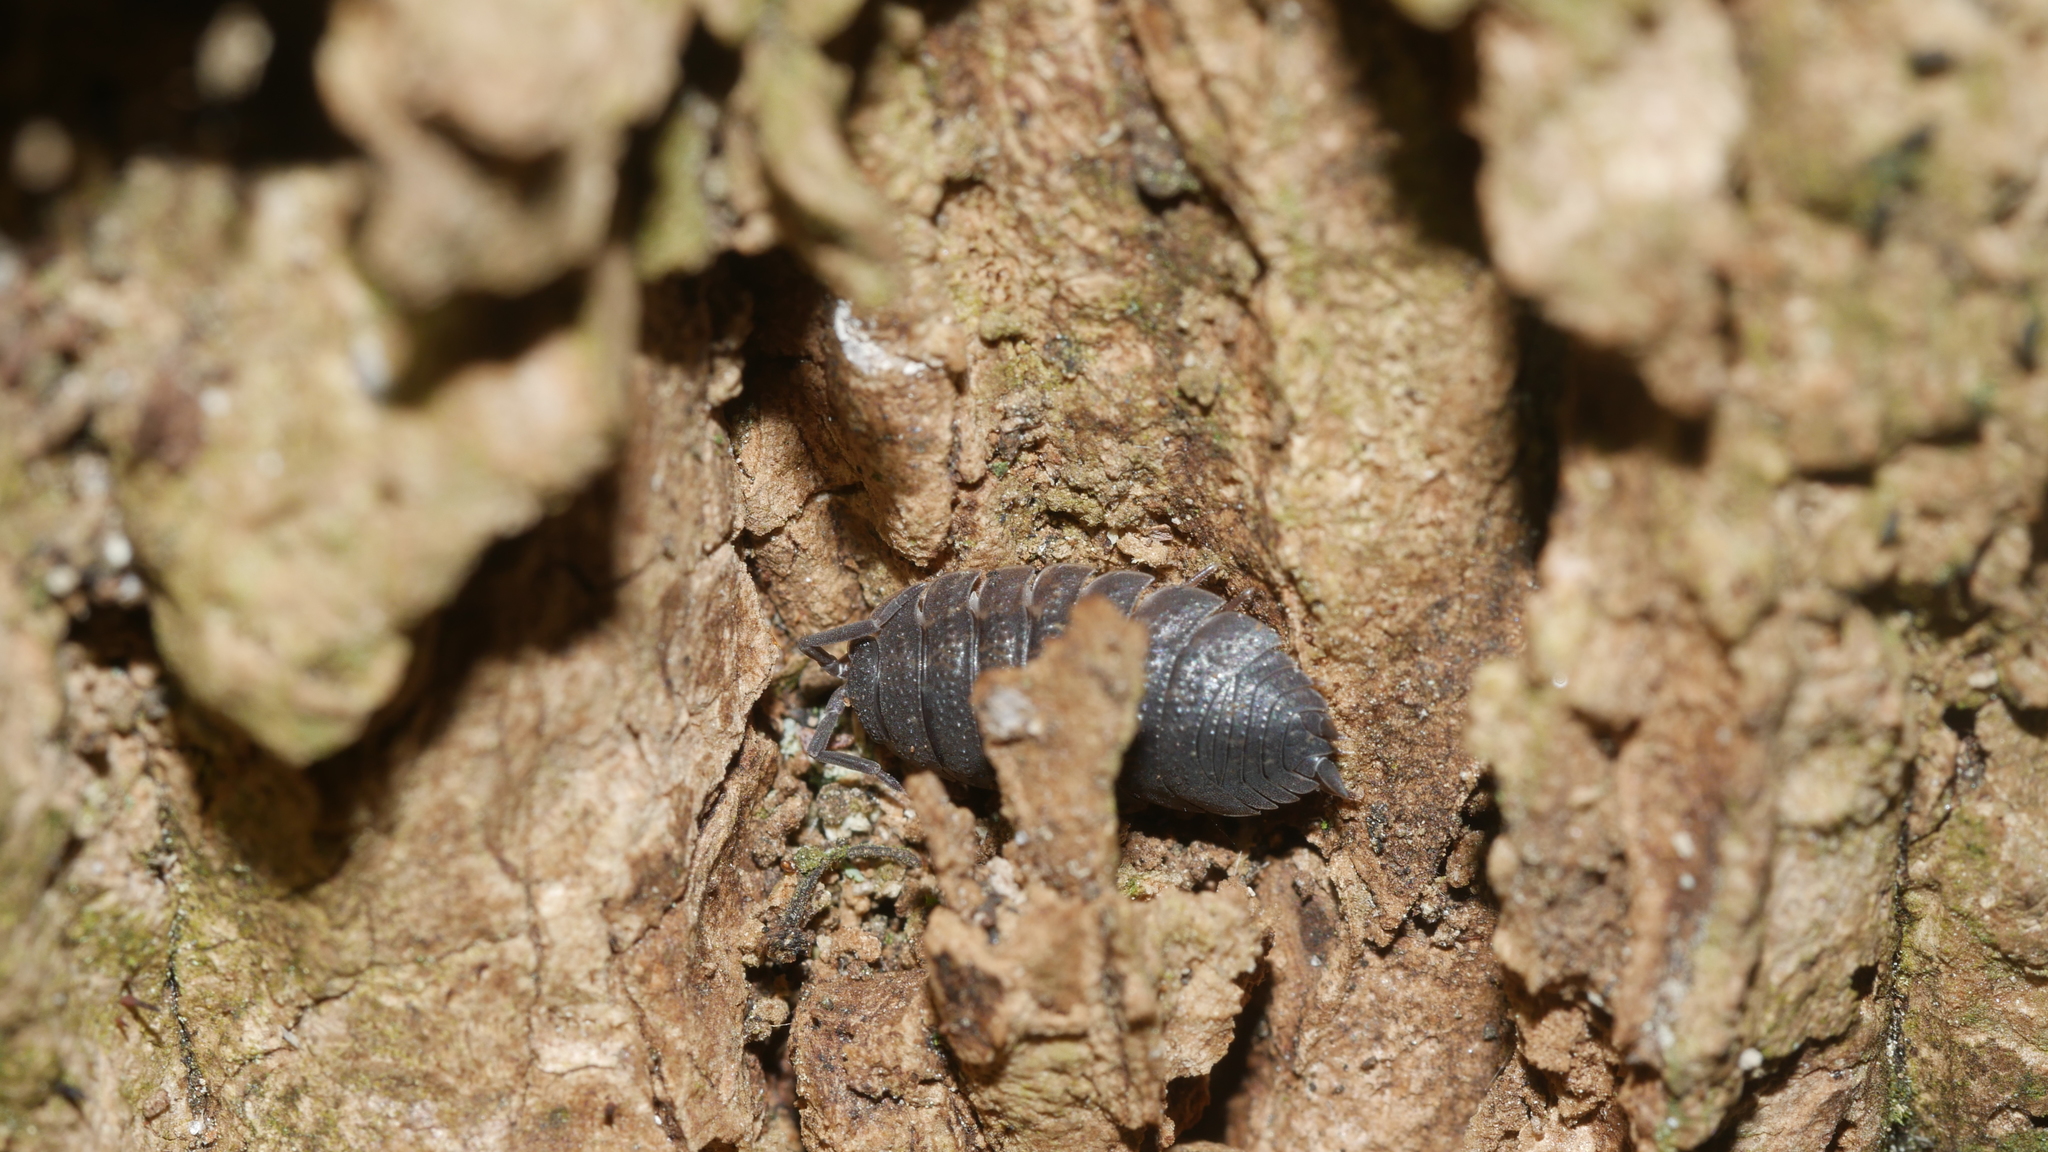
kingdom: Animalia
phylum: Arthropoda
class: Malacostraca
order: Isopoda
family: Porcellionidae
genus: Porcellio
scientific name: Porcellio scaber
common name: Common rough woodlouse
